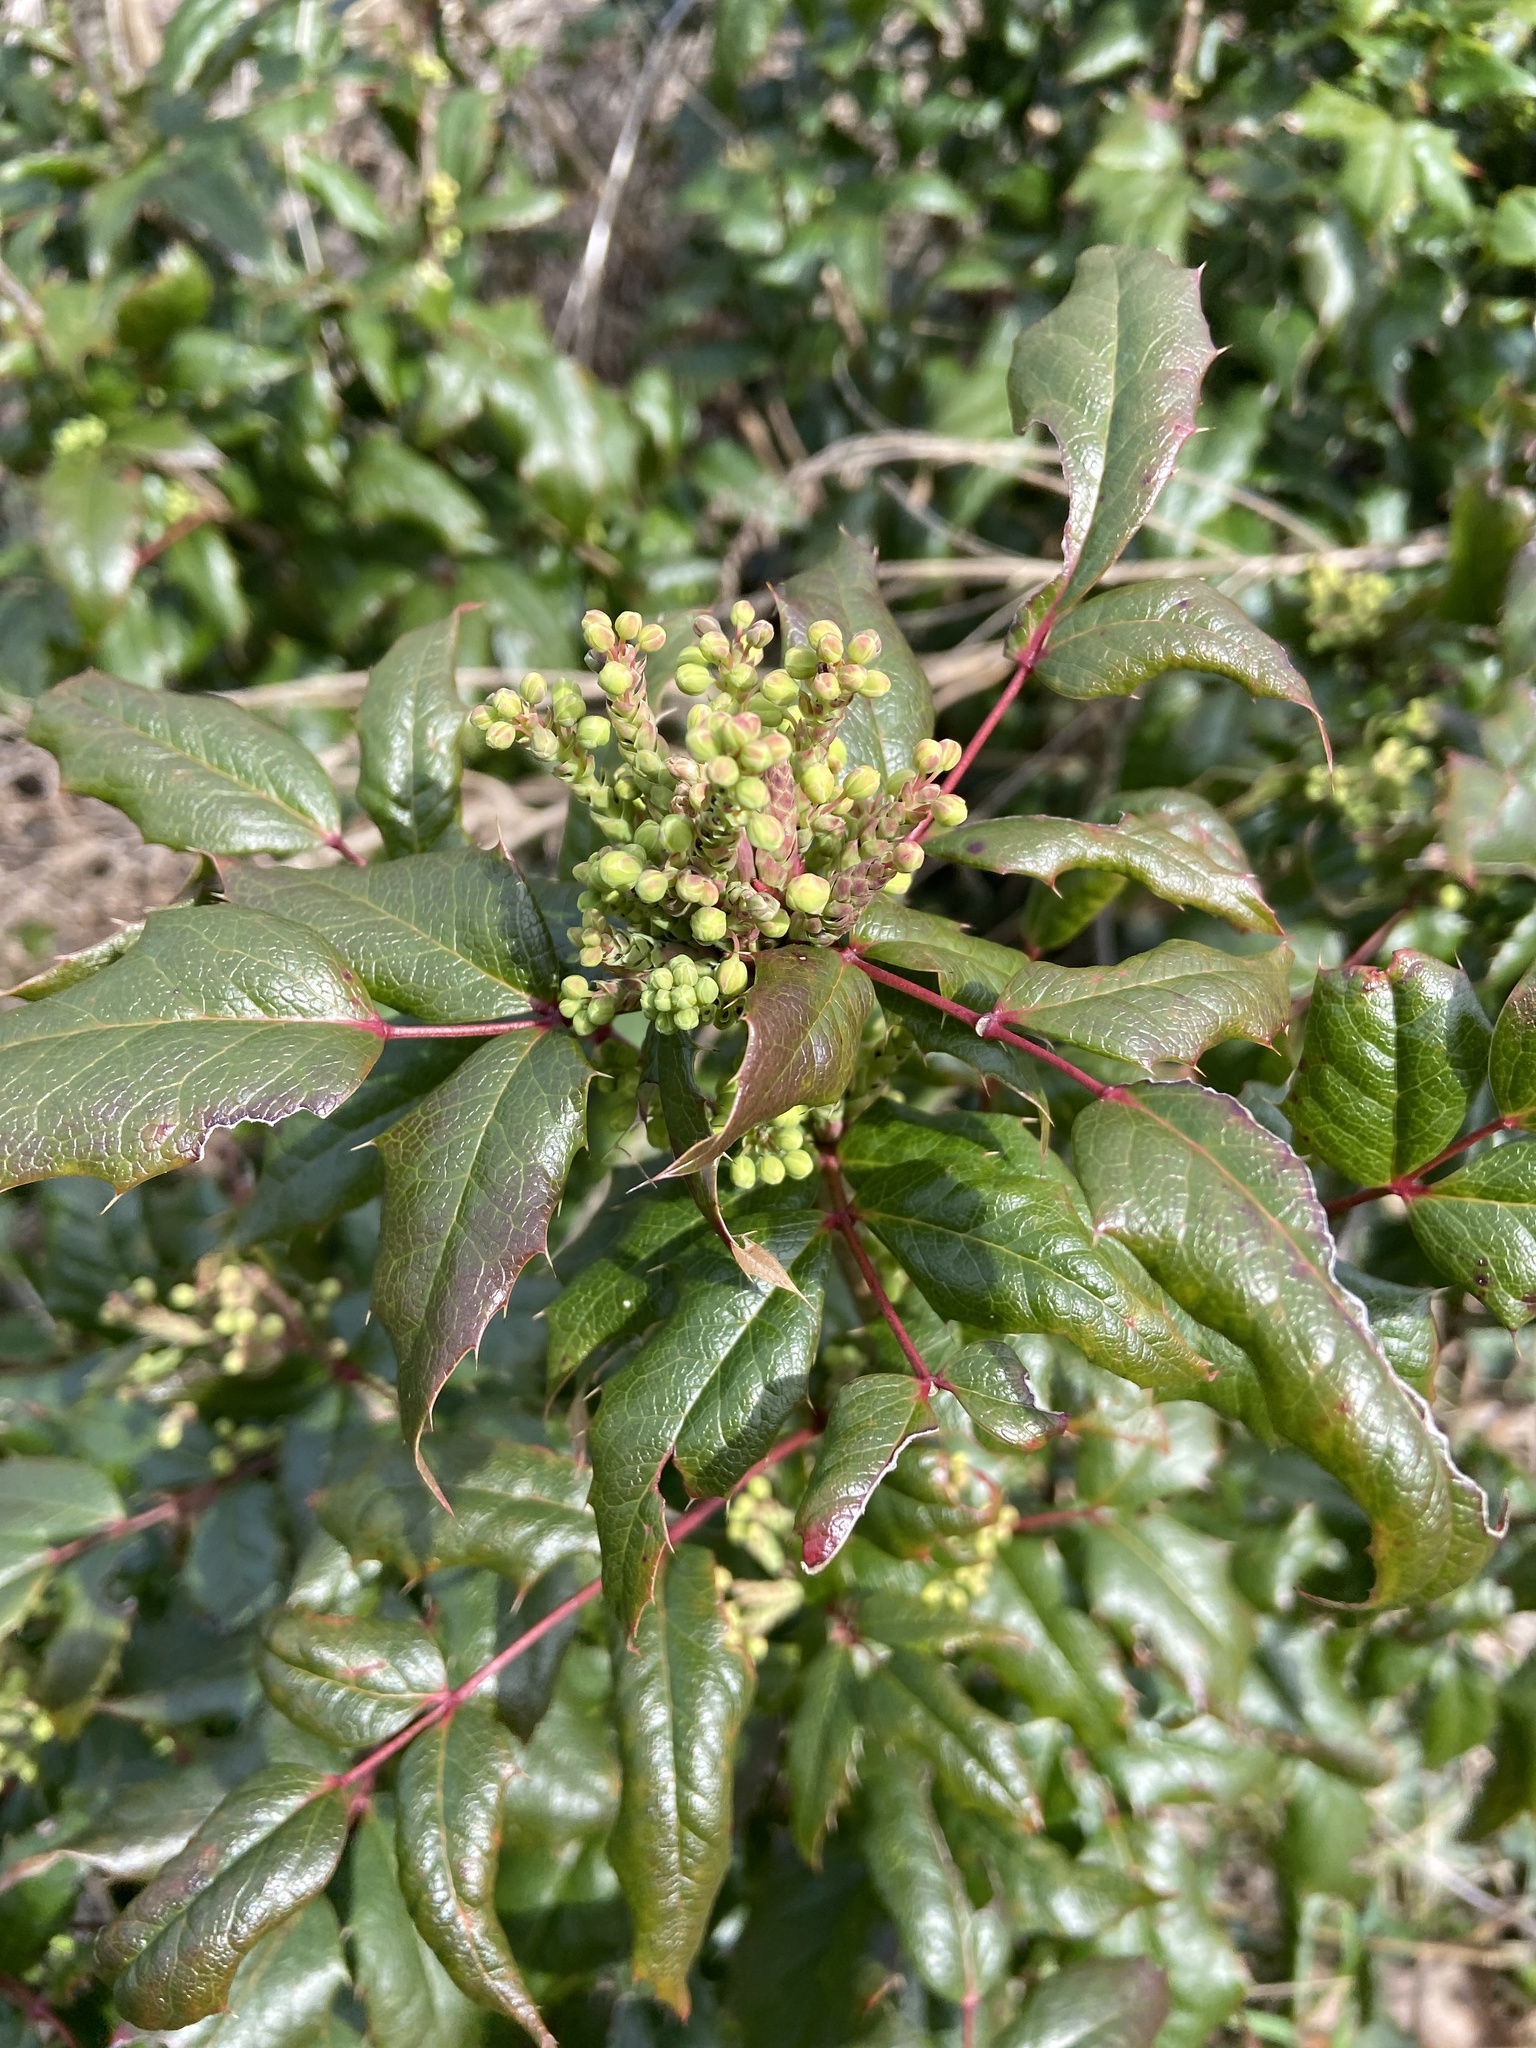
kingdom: Plantae
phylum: Tracheophyta
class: Magnoliopsida
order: Ranunculales
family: Berberidaceae
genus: Mahonia
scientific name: Mahonia aquifolium
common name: Oregon-grape
